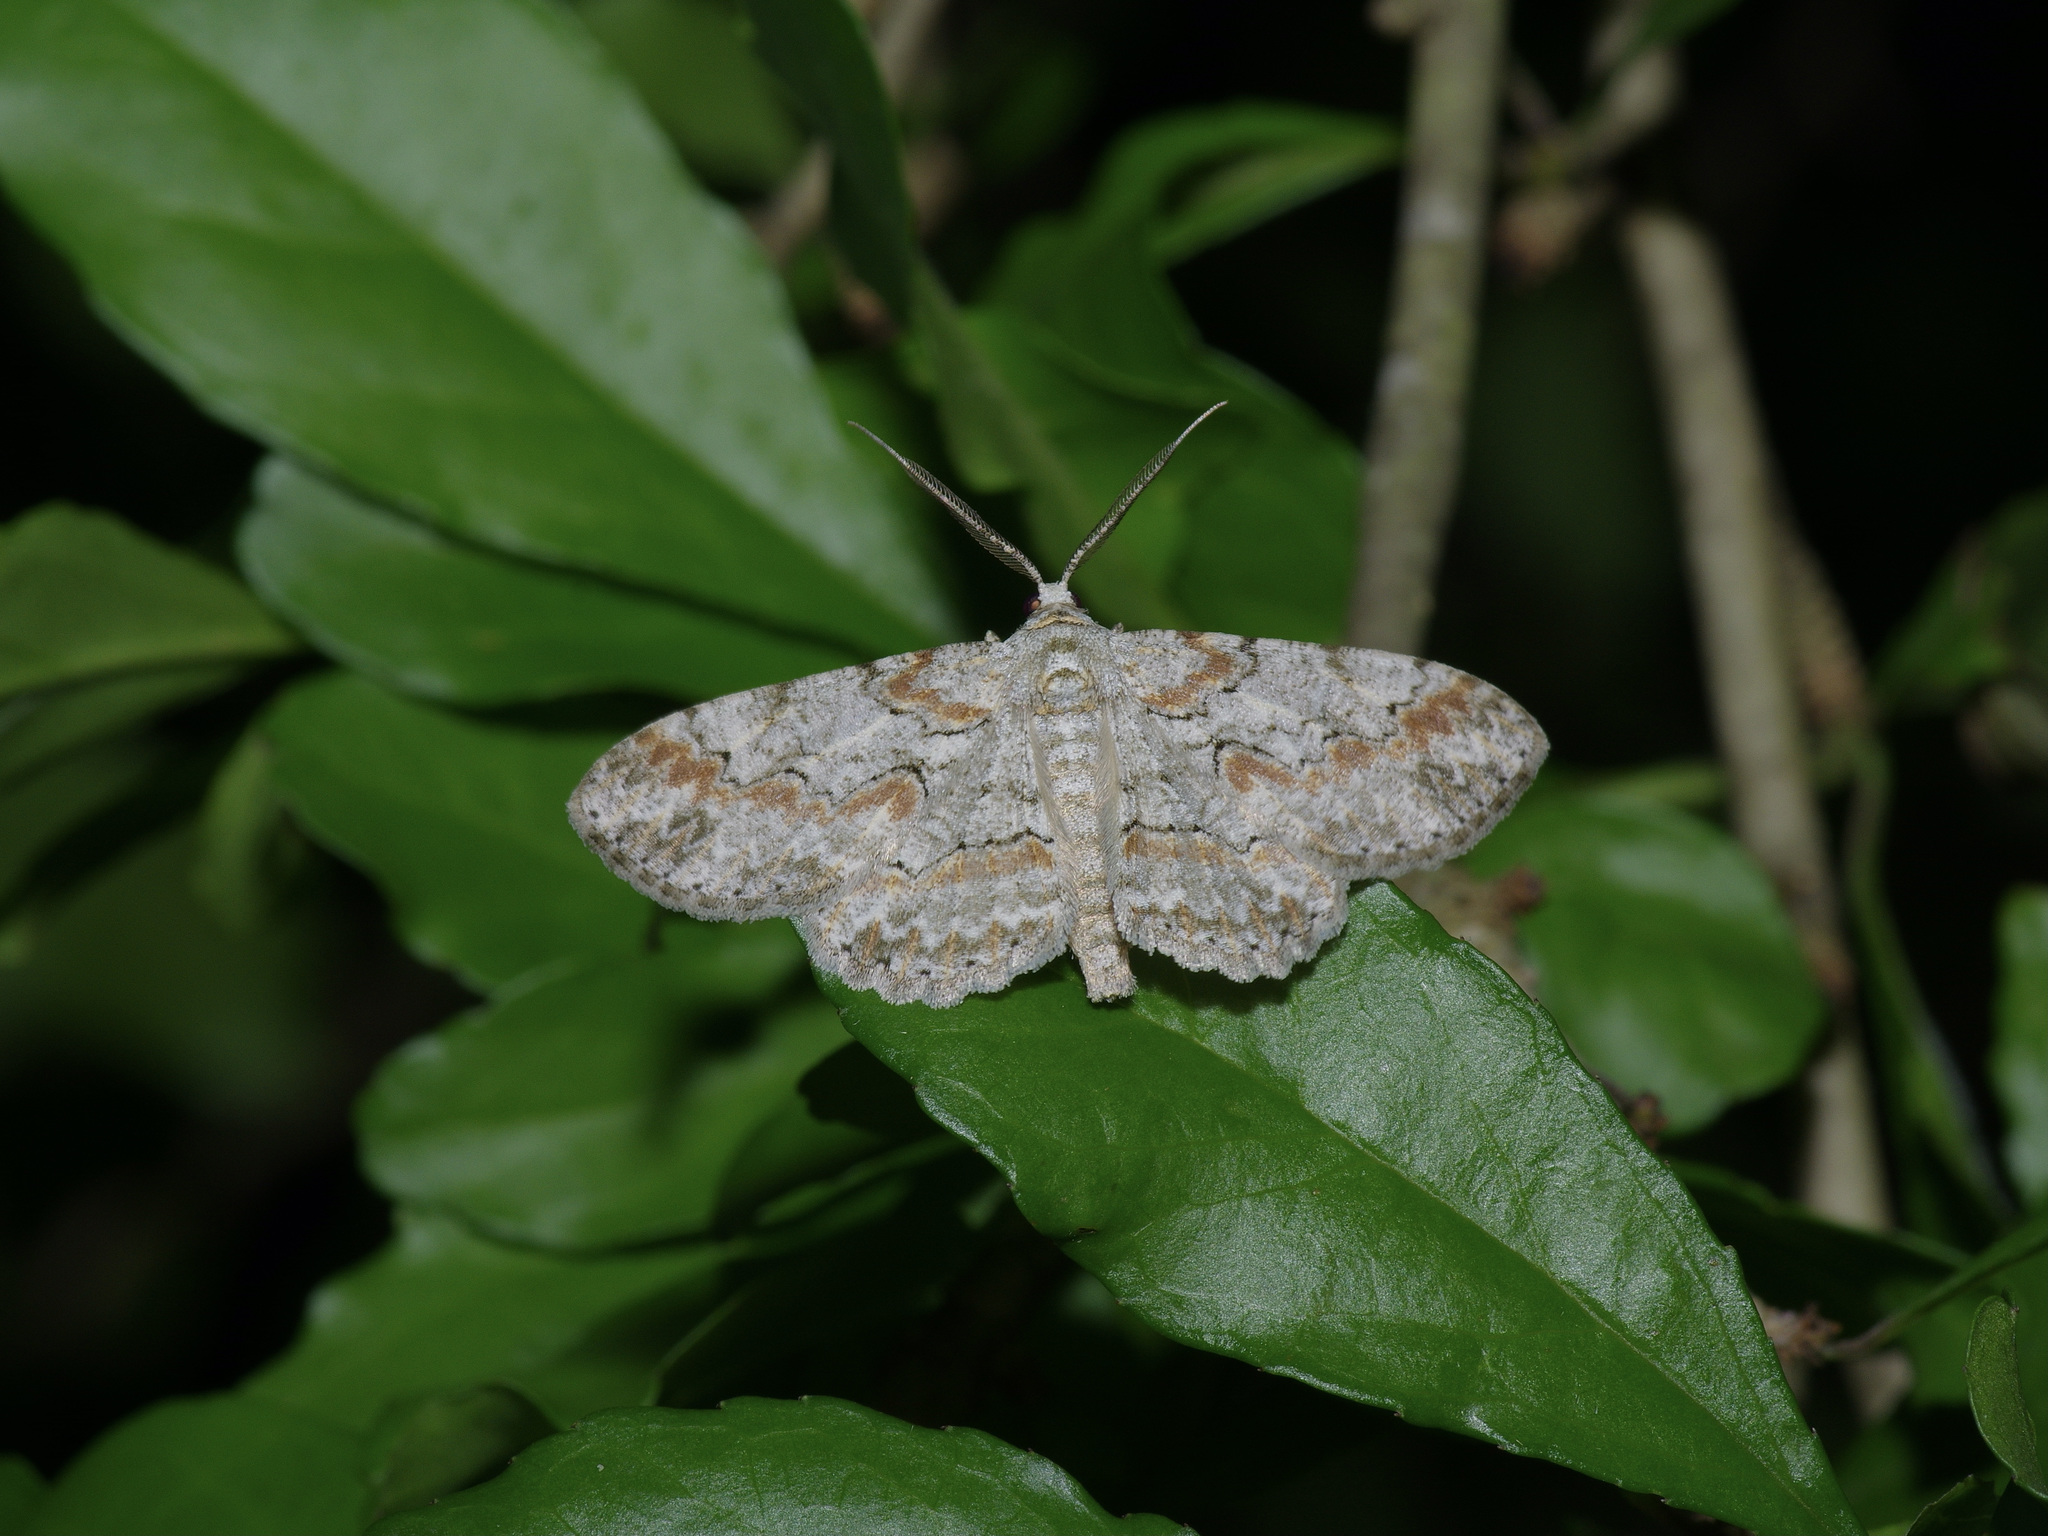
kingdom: Animalia
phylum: Arthropoda
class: Insecta
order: Lepidoptera
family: Geometridae
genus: Iridopsis
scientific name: Iridopsis defectaria
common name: Brown-shaded gray
